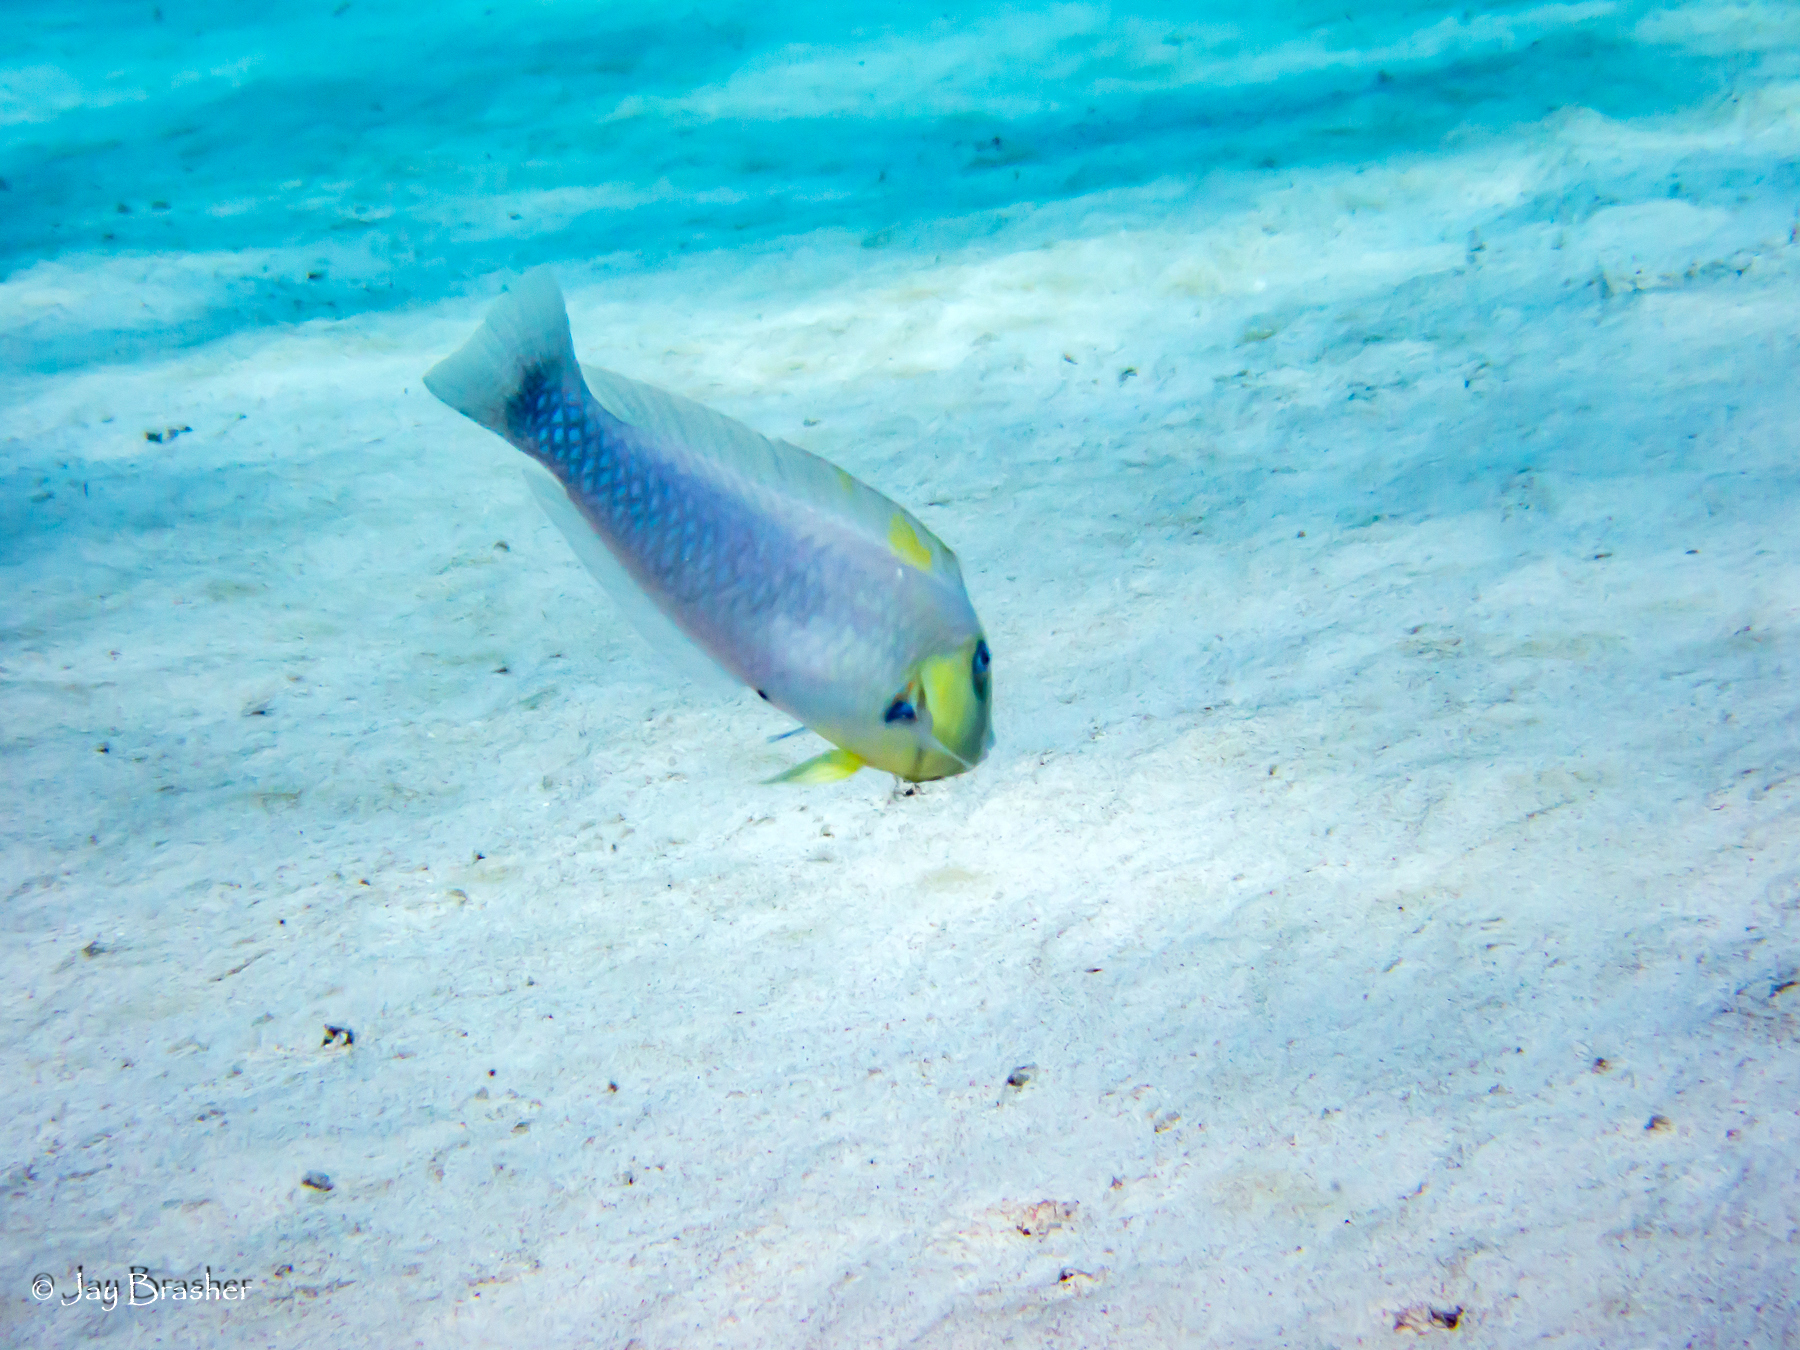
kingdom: Animalia
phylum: Chordata
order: Perciformes
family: Labridae
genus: Xyrichtys
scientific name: Xyrichtys martinicensis
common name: Rosy razorfish
